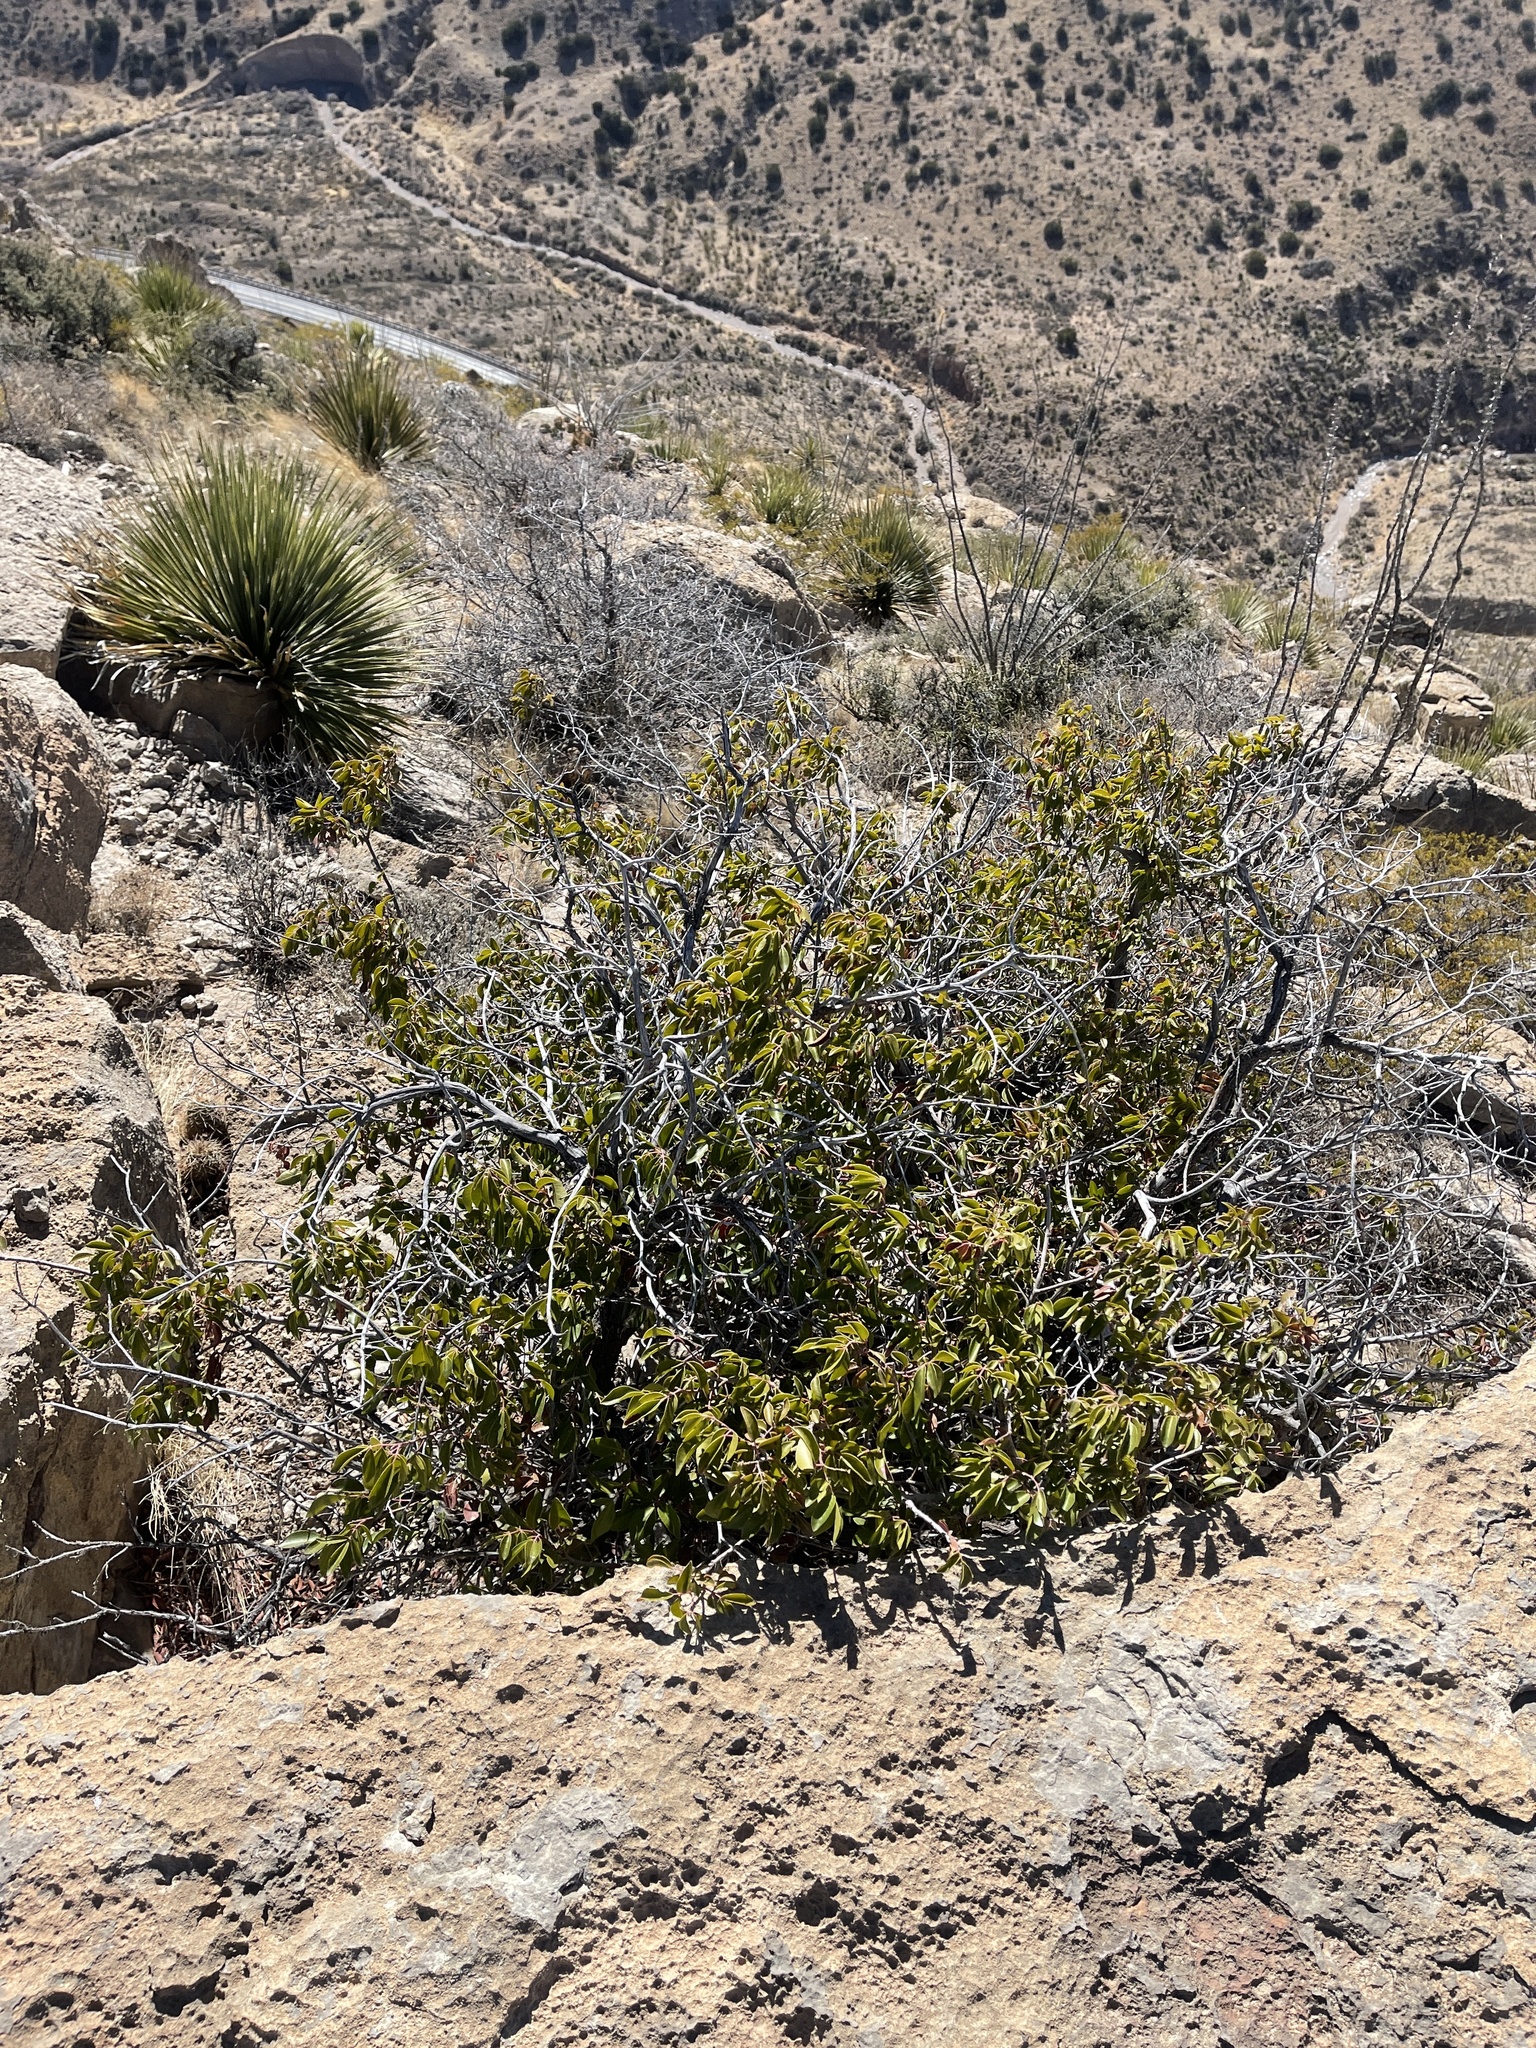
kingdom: Plantae
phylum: Tracheophyta
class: Magnoliopsida
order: Sapindales
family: Anacardiaceae
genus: Rhus
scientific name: Rhus virens
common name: Evergreen sumac
